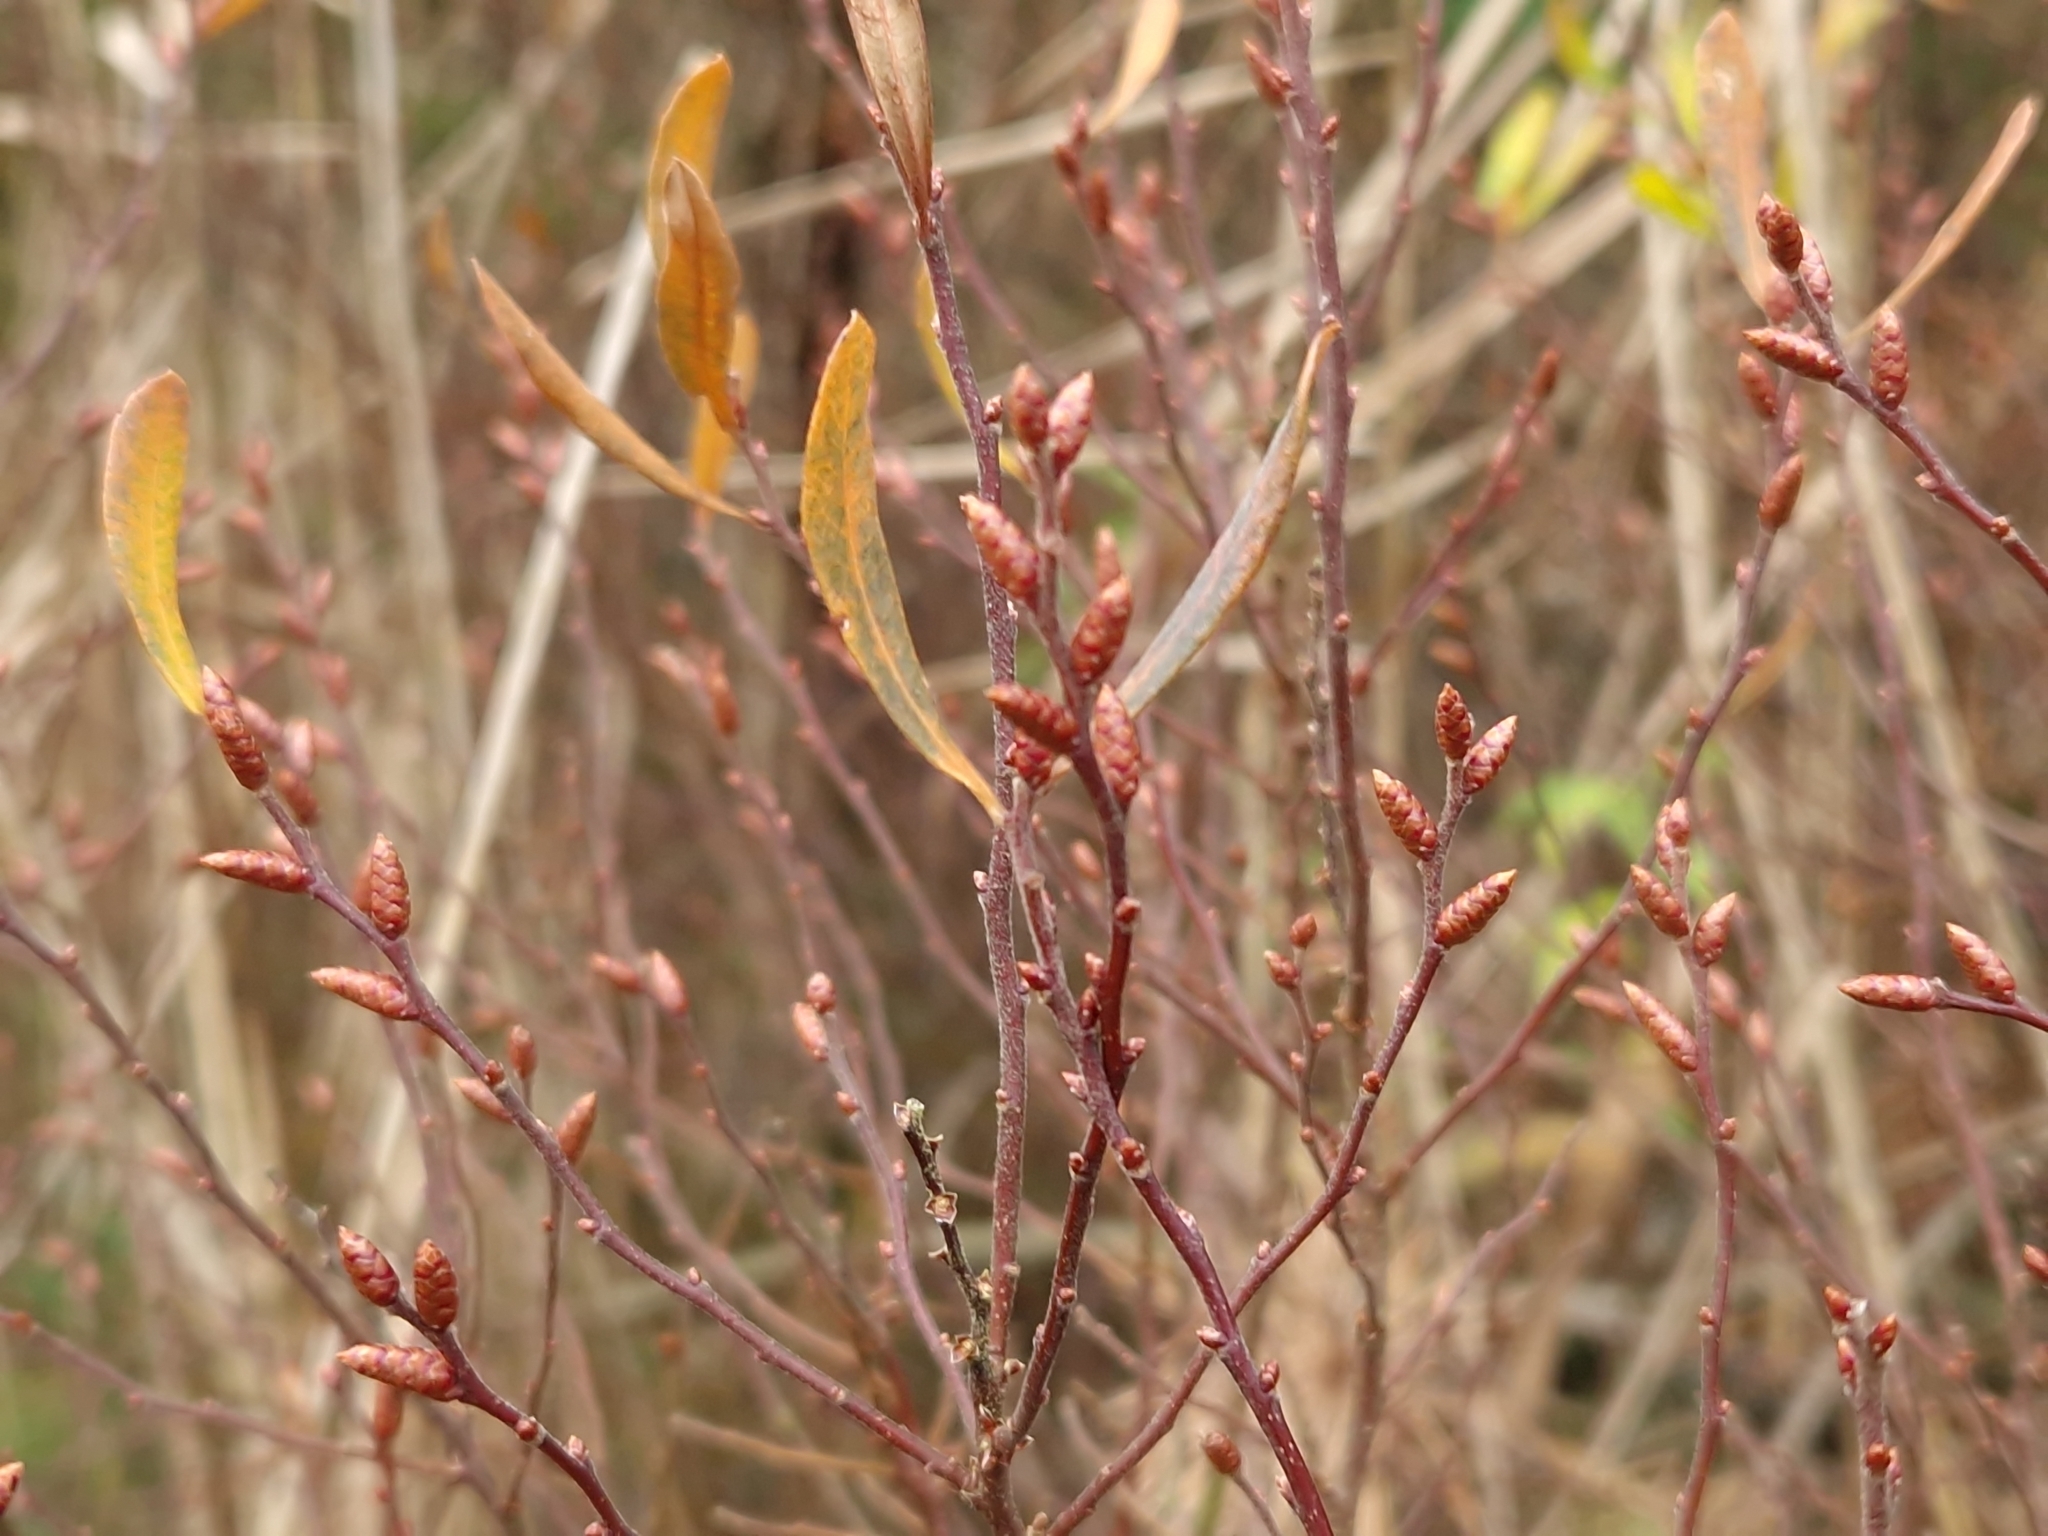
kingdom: Plantae
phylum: Tracheophyta
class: Magnoliopsida
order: Fagales
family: Myricaceae
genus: Myrica
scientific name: Myrica gale
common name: Sweet gale
